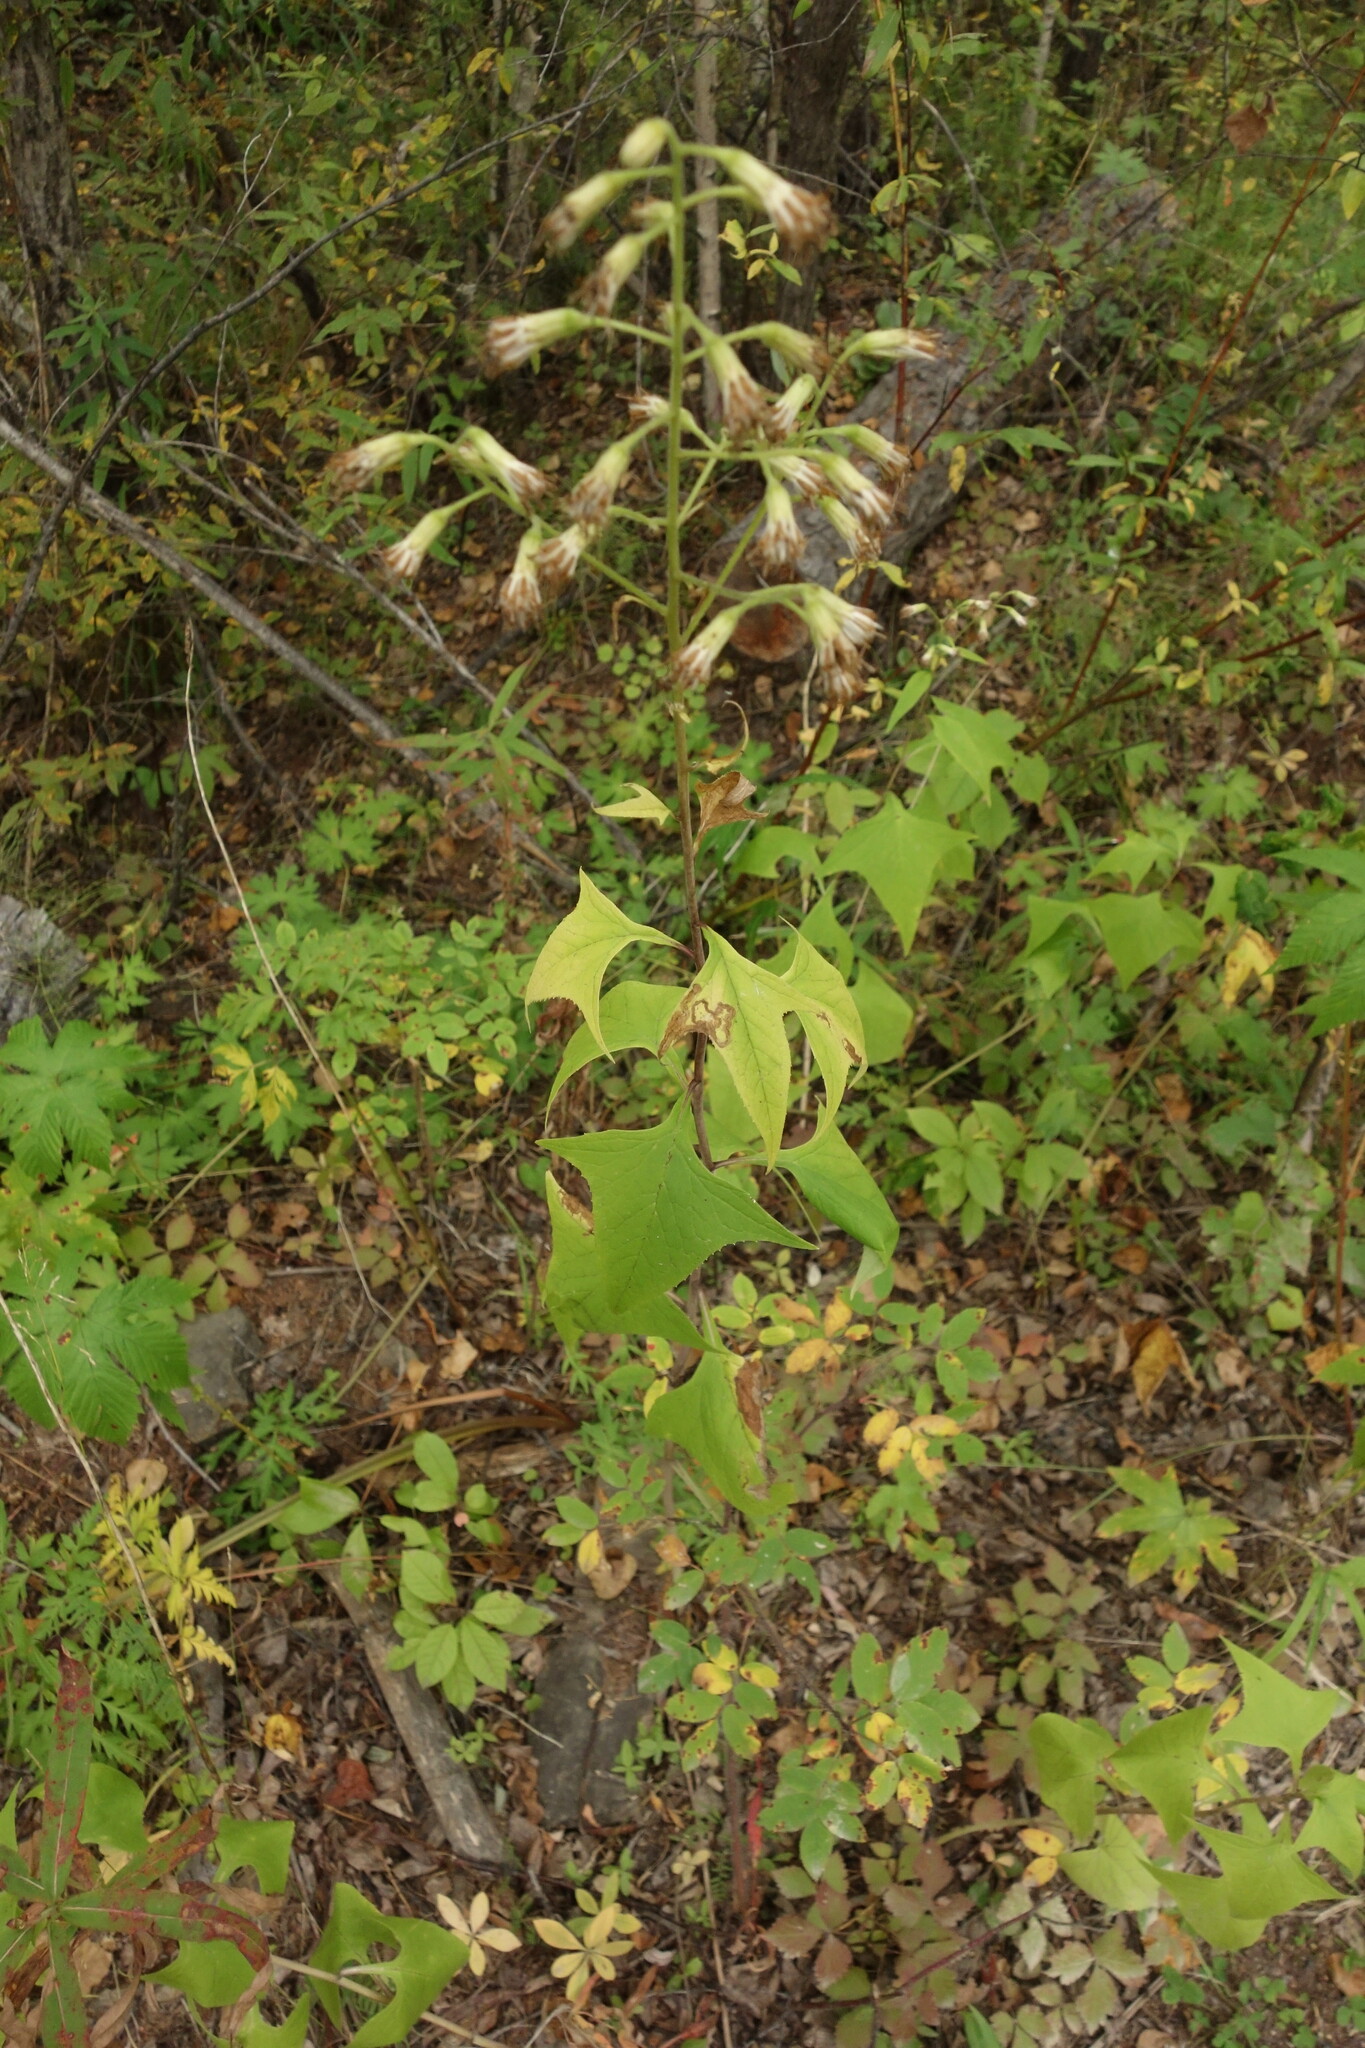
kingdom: Plantae
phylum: Tracheophyta
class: Magnoliopsida
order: Asterales
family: Asteraceae
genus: Parasenecio
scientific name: Parasenecio hastatus
